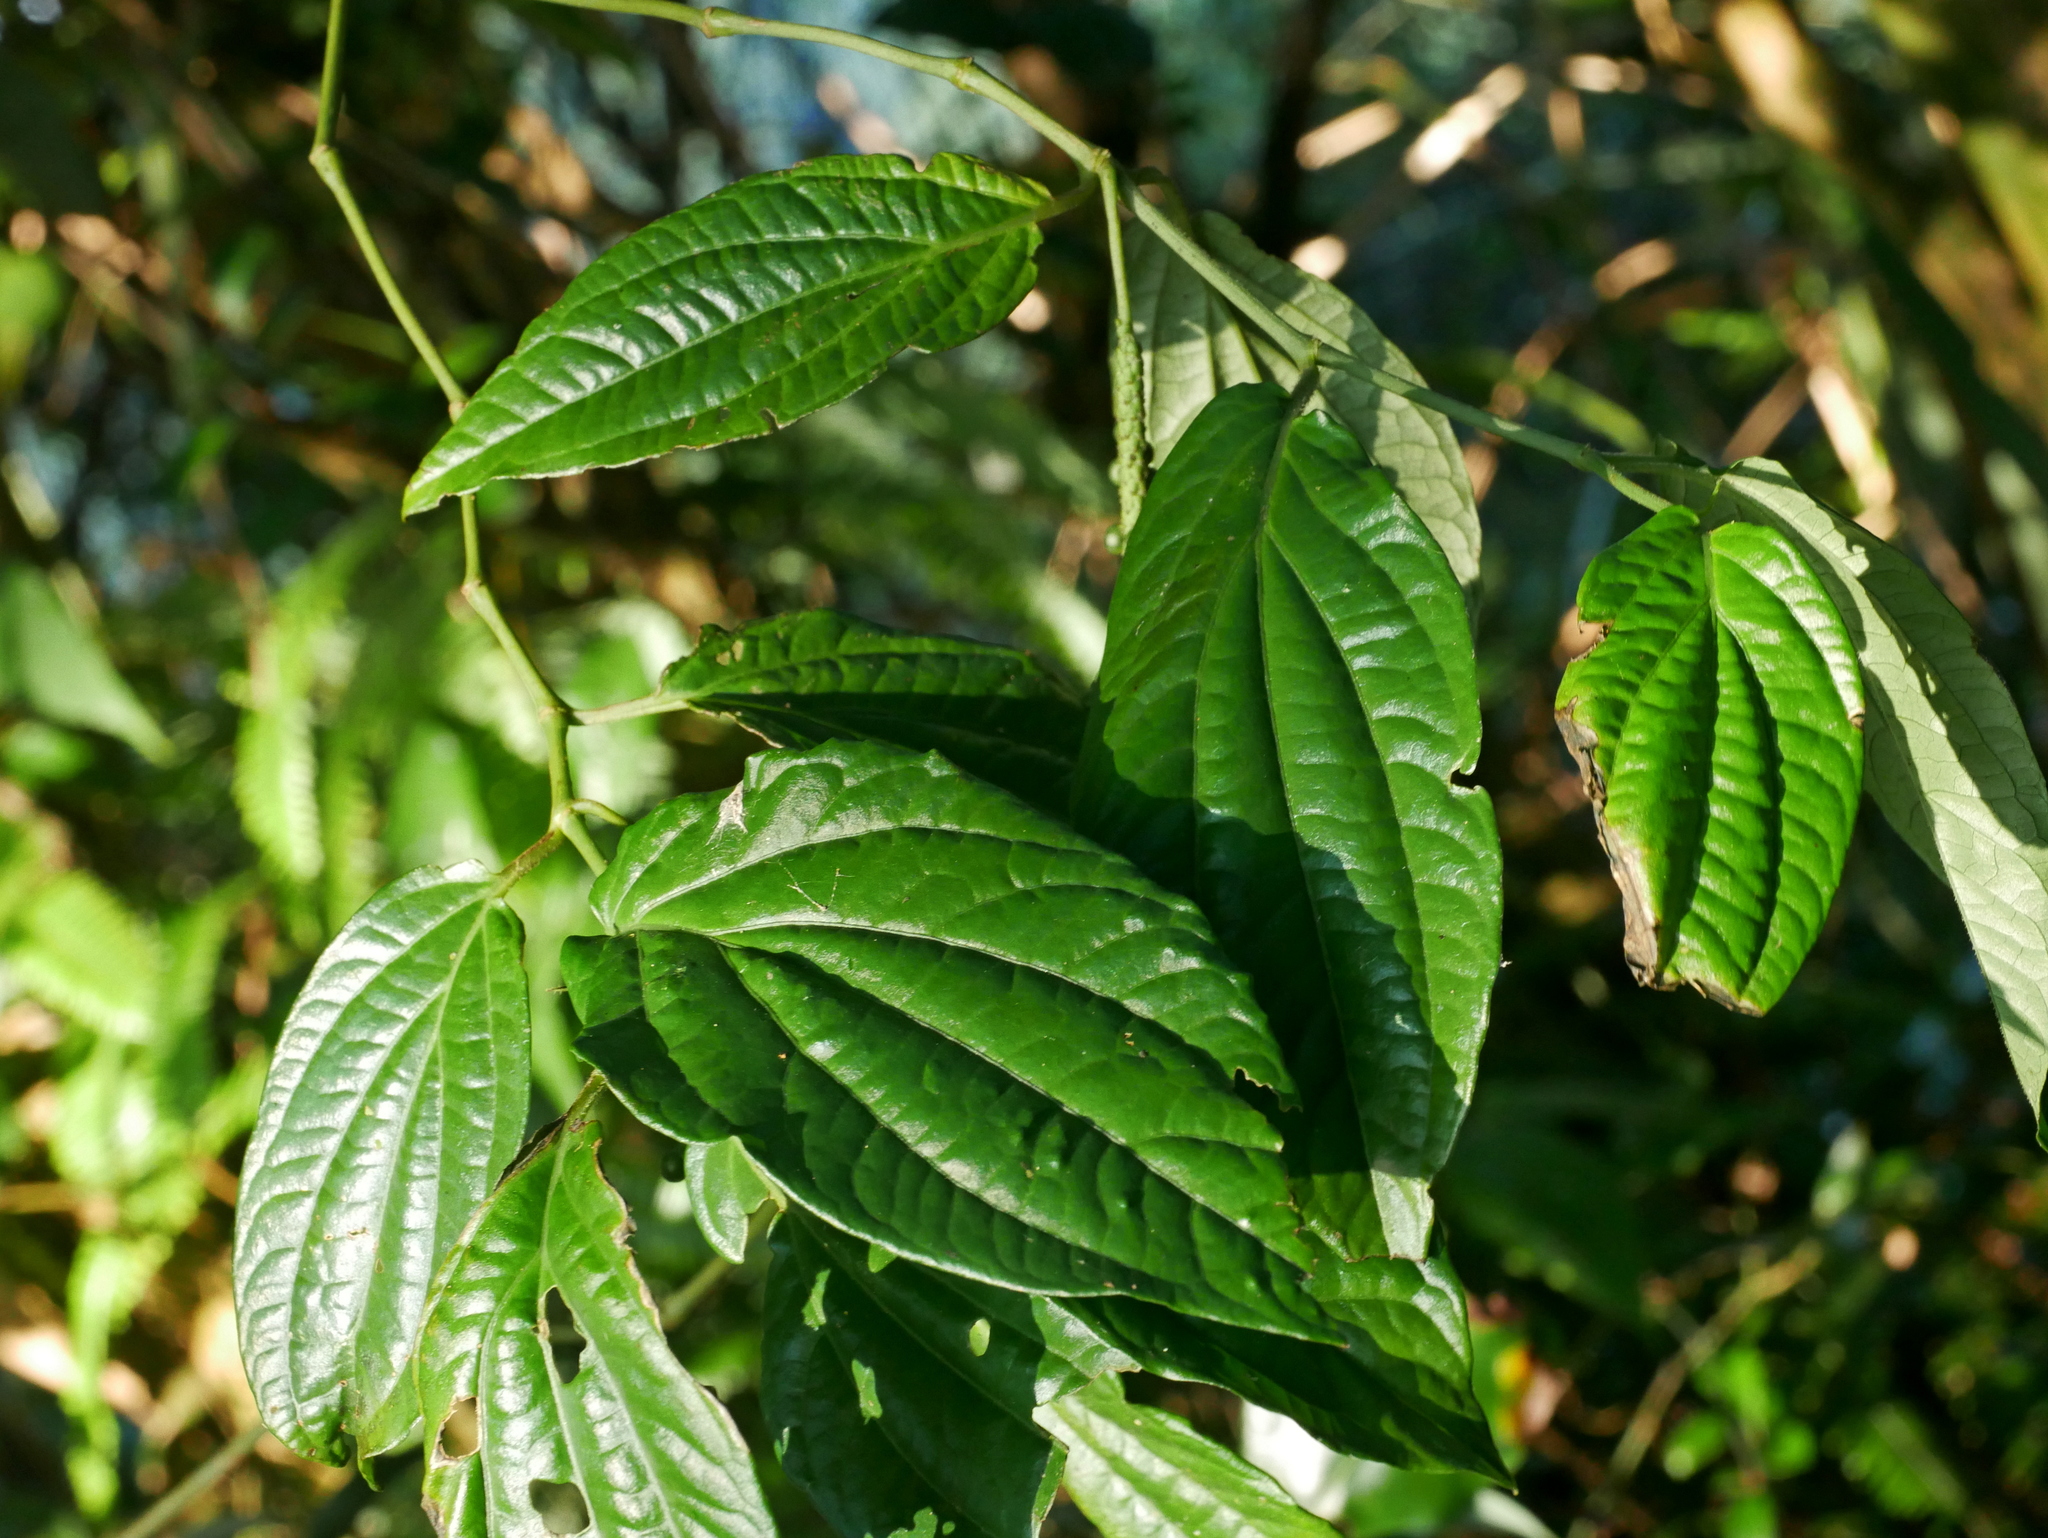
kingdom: Plantae
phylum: Tracheophyta
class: Magnoliopsida
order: Piperales
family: Piperaceae
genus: Piper
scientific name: Piper sintenense
